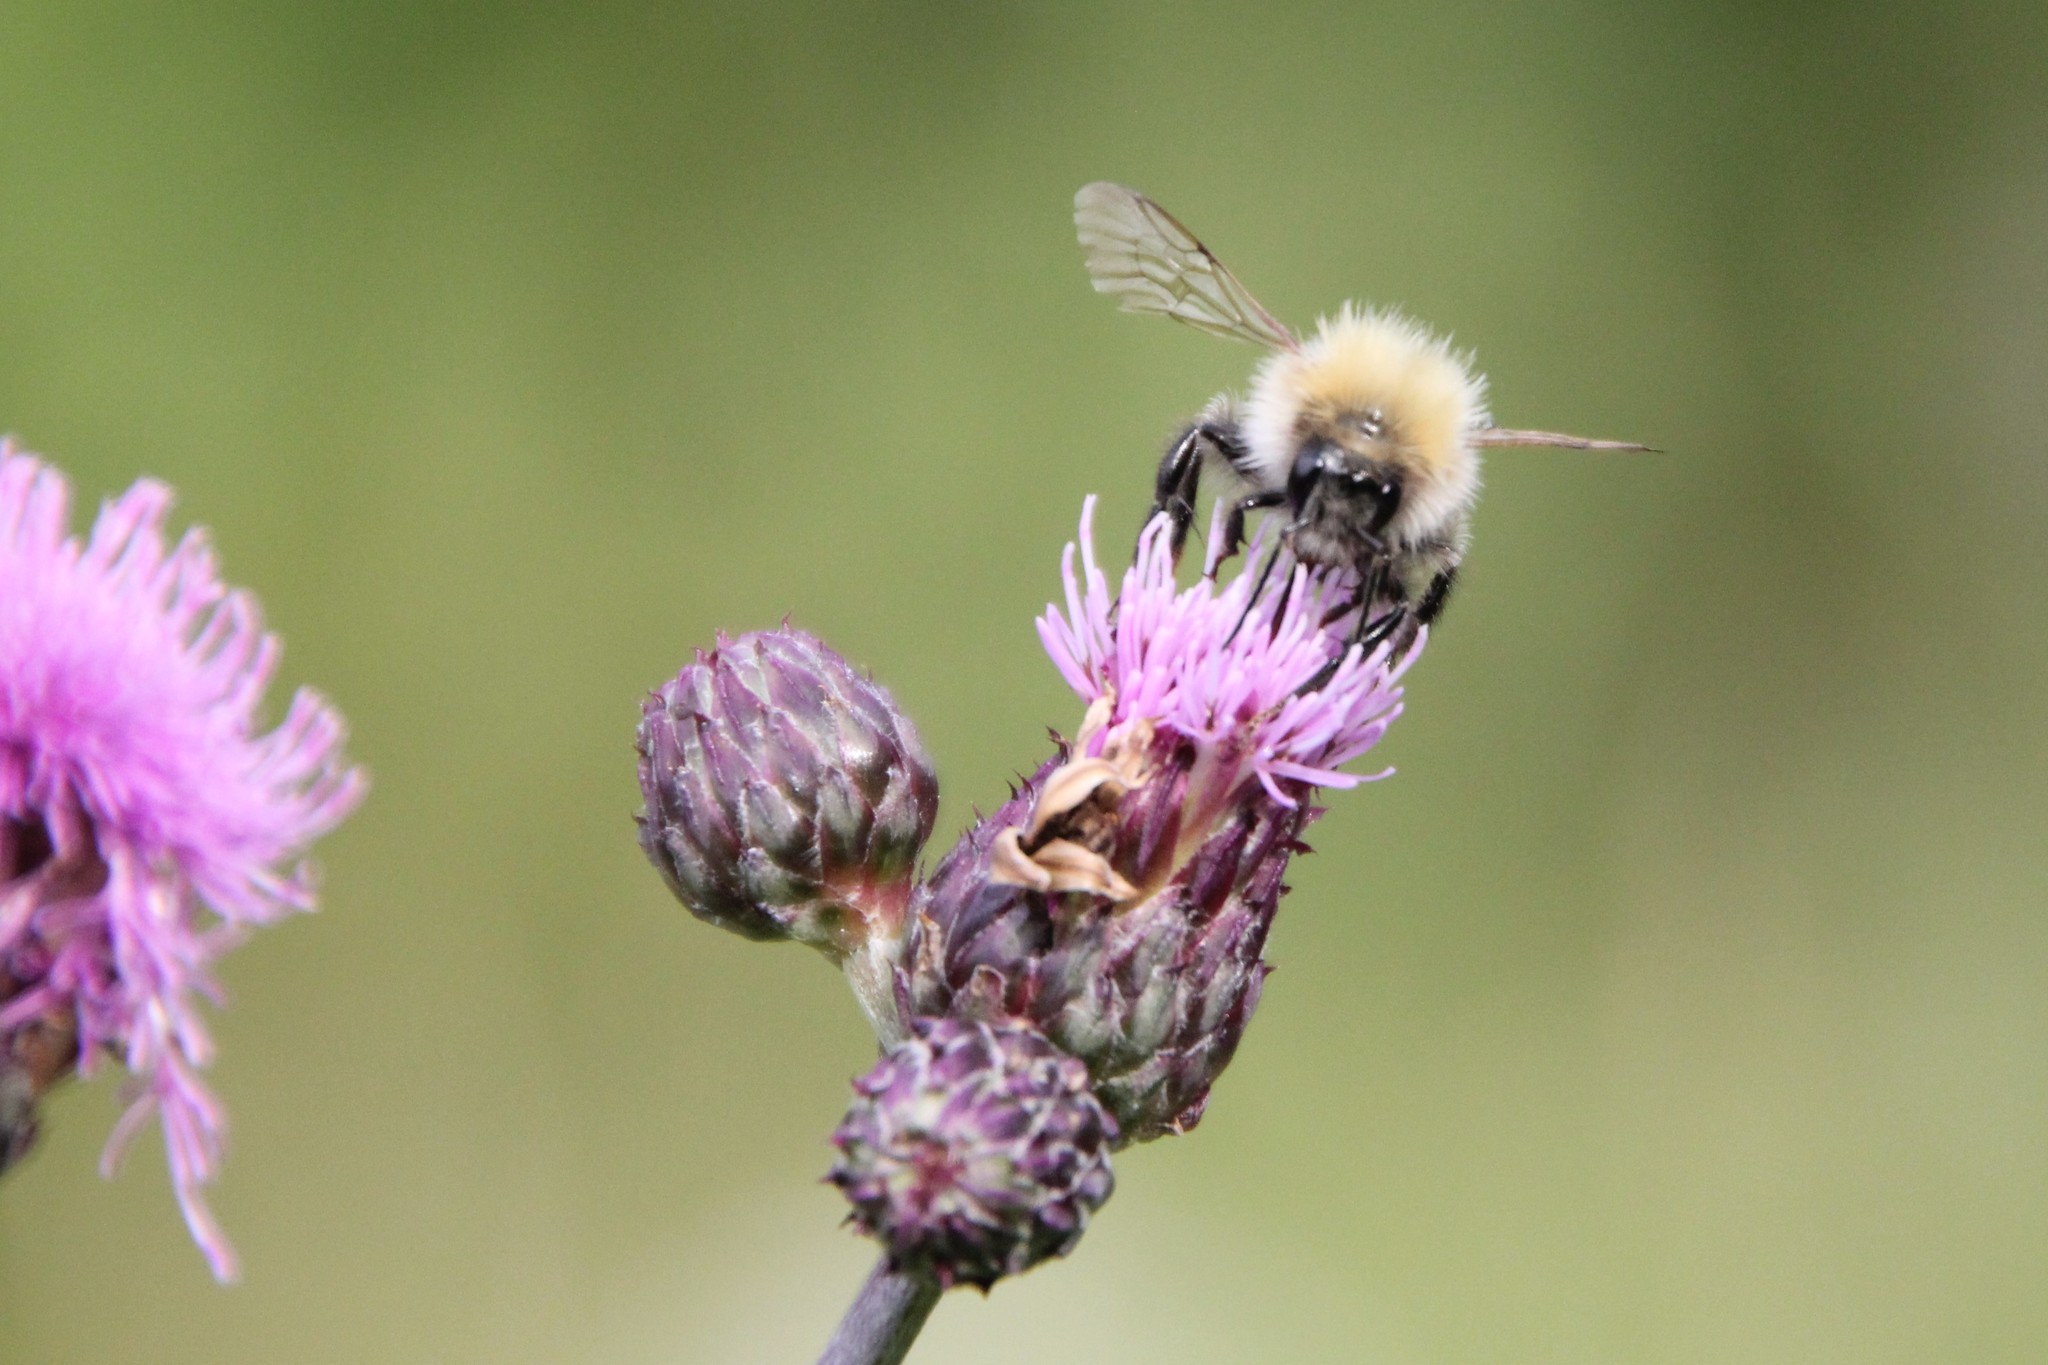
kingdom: Animalia
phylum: Arthropoda
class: Insecta
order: Hymenoptera
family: Apidae
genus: Bombus
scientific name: Bombus pascuorum
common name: Common carder bee
